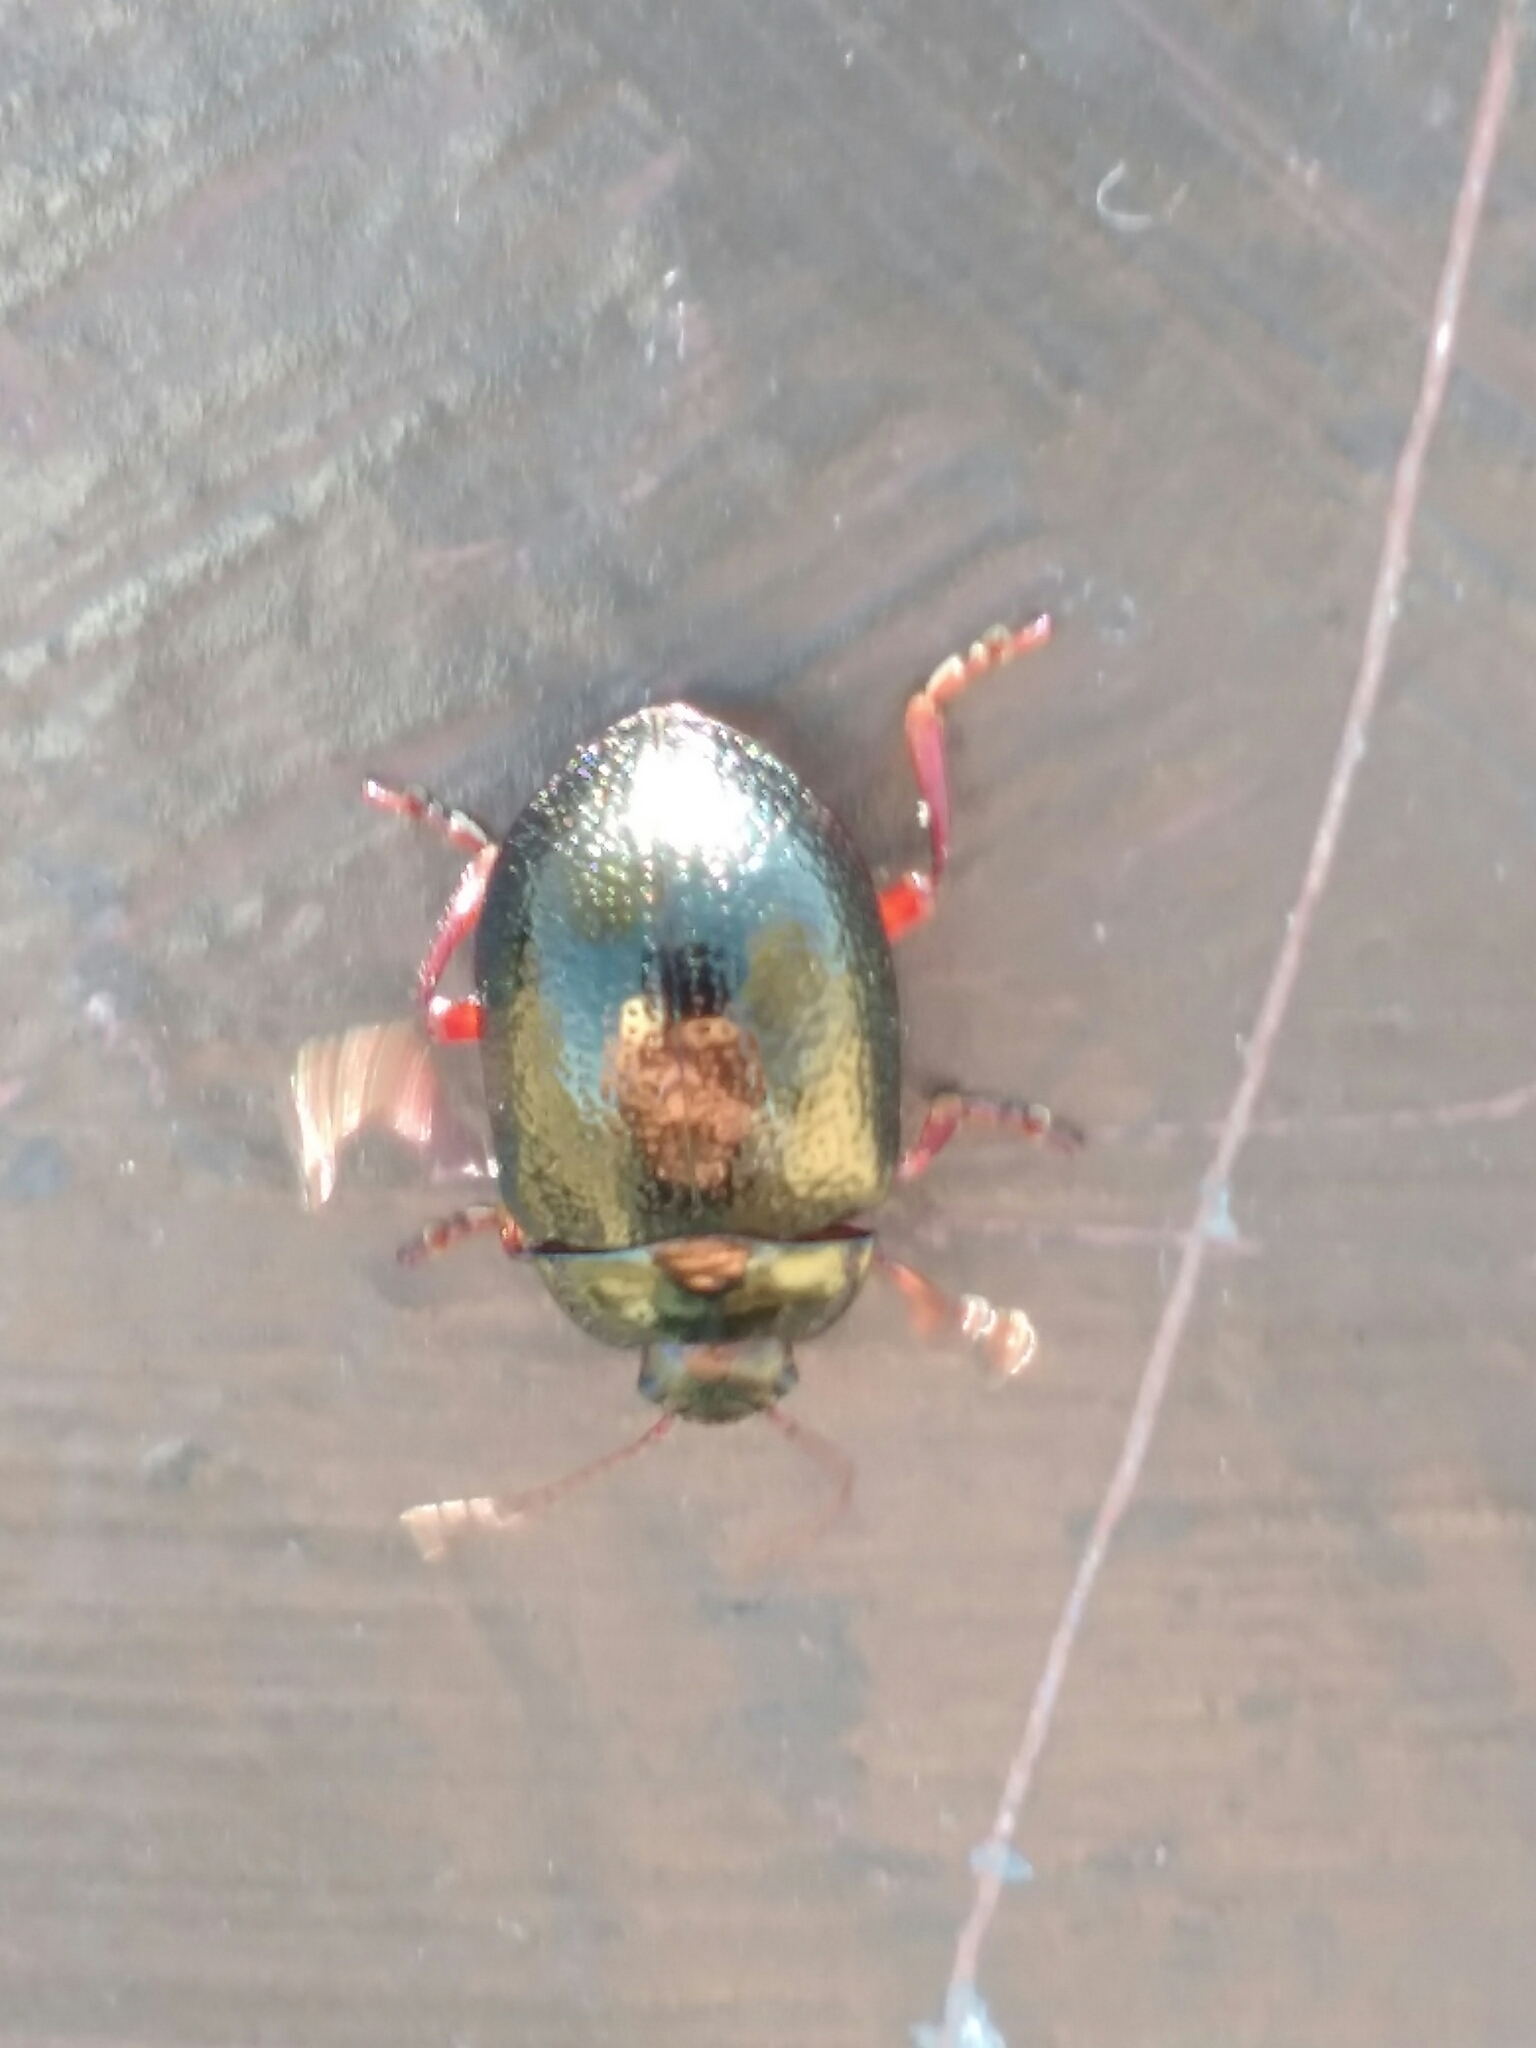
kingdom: Animalia
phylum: Arthropoda
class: Insecta
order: Coleoptera
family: Chrysomelidae
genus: Chrysolina
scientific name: Chrysolina bankii
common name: Leaf beetle
